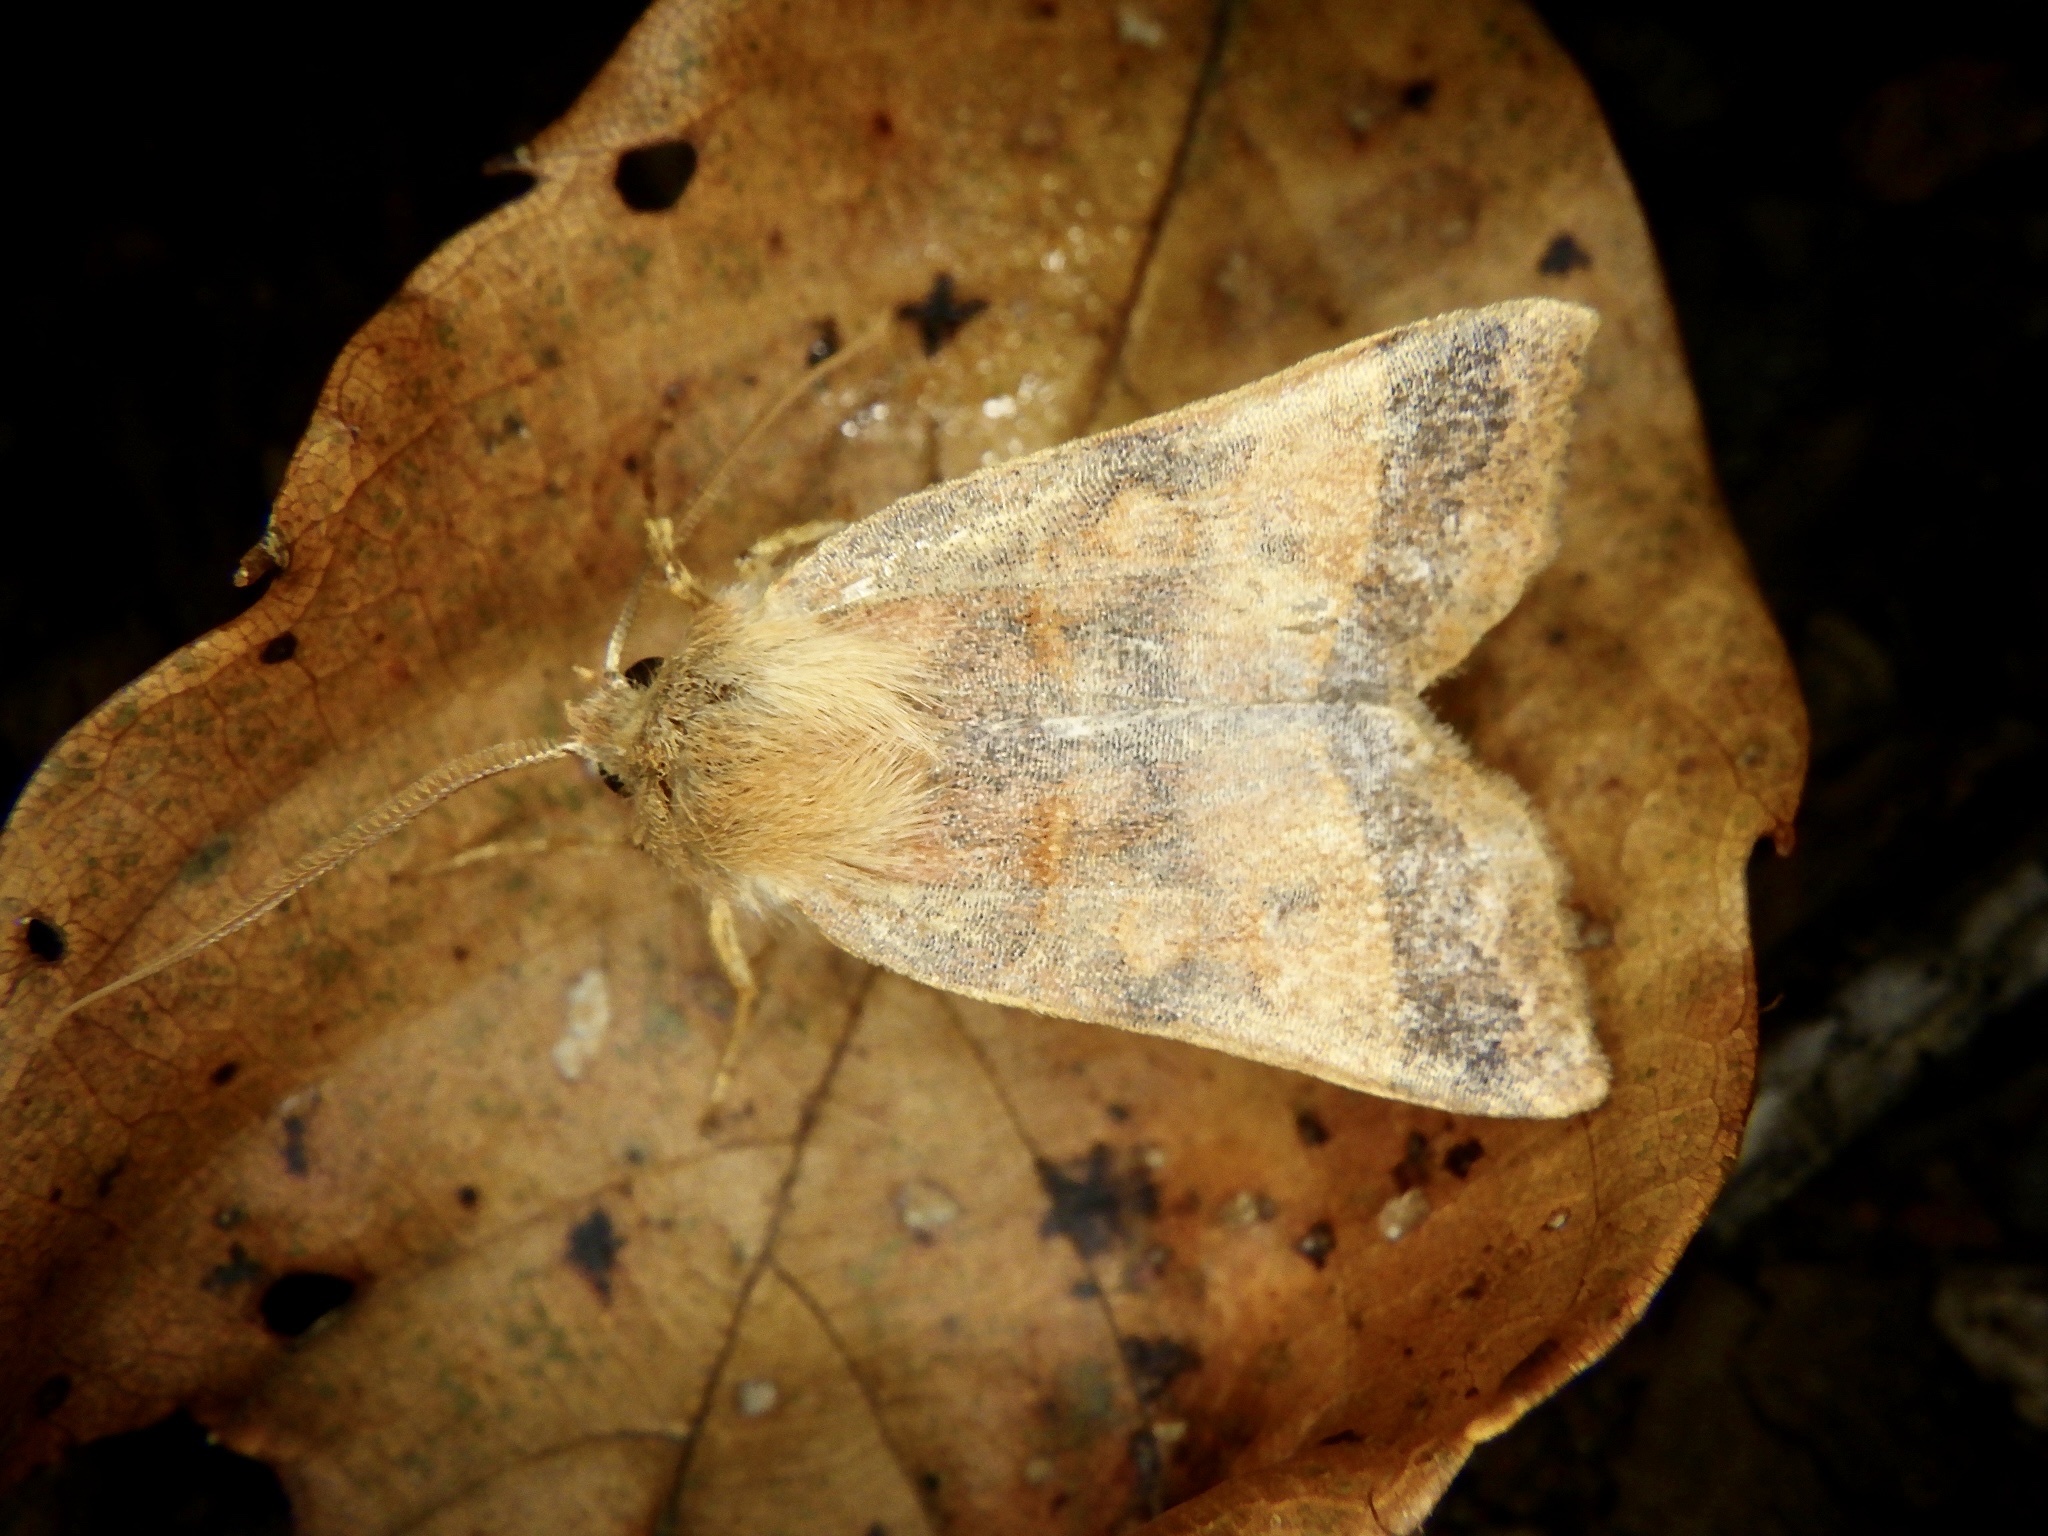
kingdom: Animalia
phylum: Arthropoda
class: Insecta
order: Lepidoptera
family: Noctuidae
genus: Telorta
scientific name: Telorta edentata
